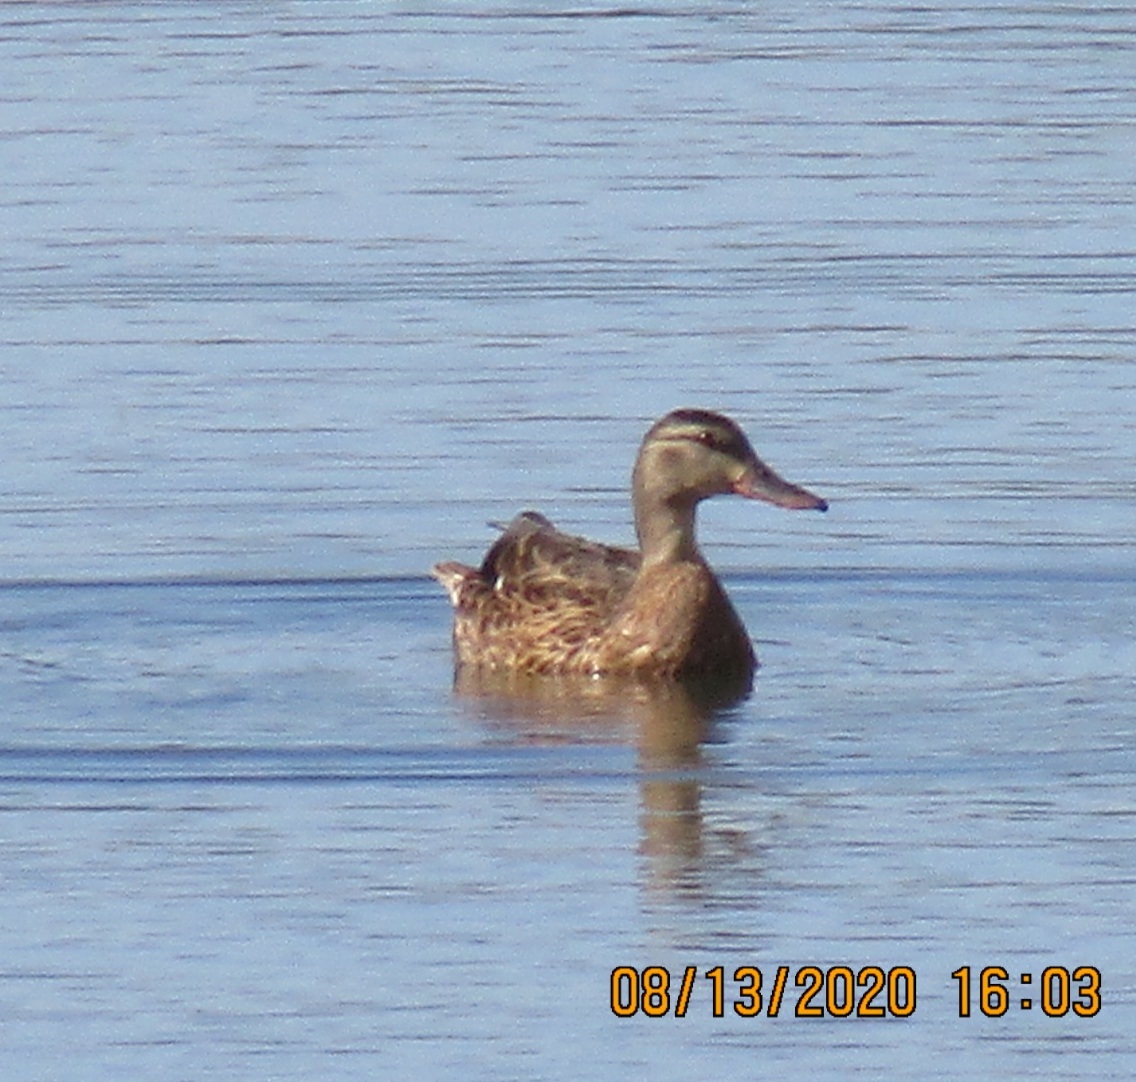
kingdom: Animalia
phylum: Chordata
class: Aves
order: Anseriformes
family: Anatidae
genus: Anas
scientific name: Anas platyrhynchos
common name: Mallard
